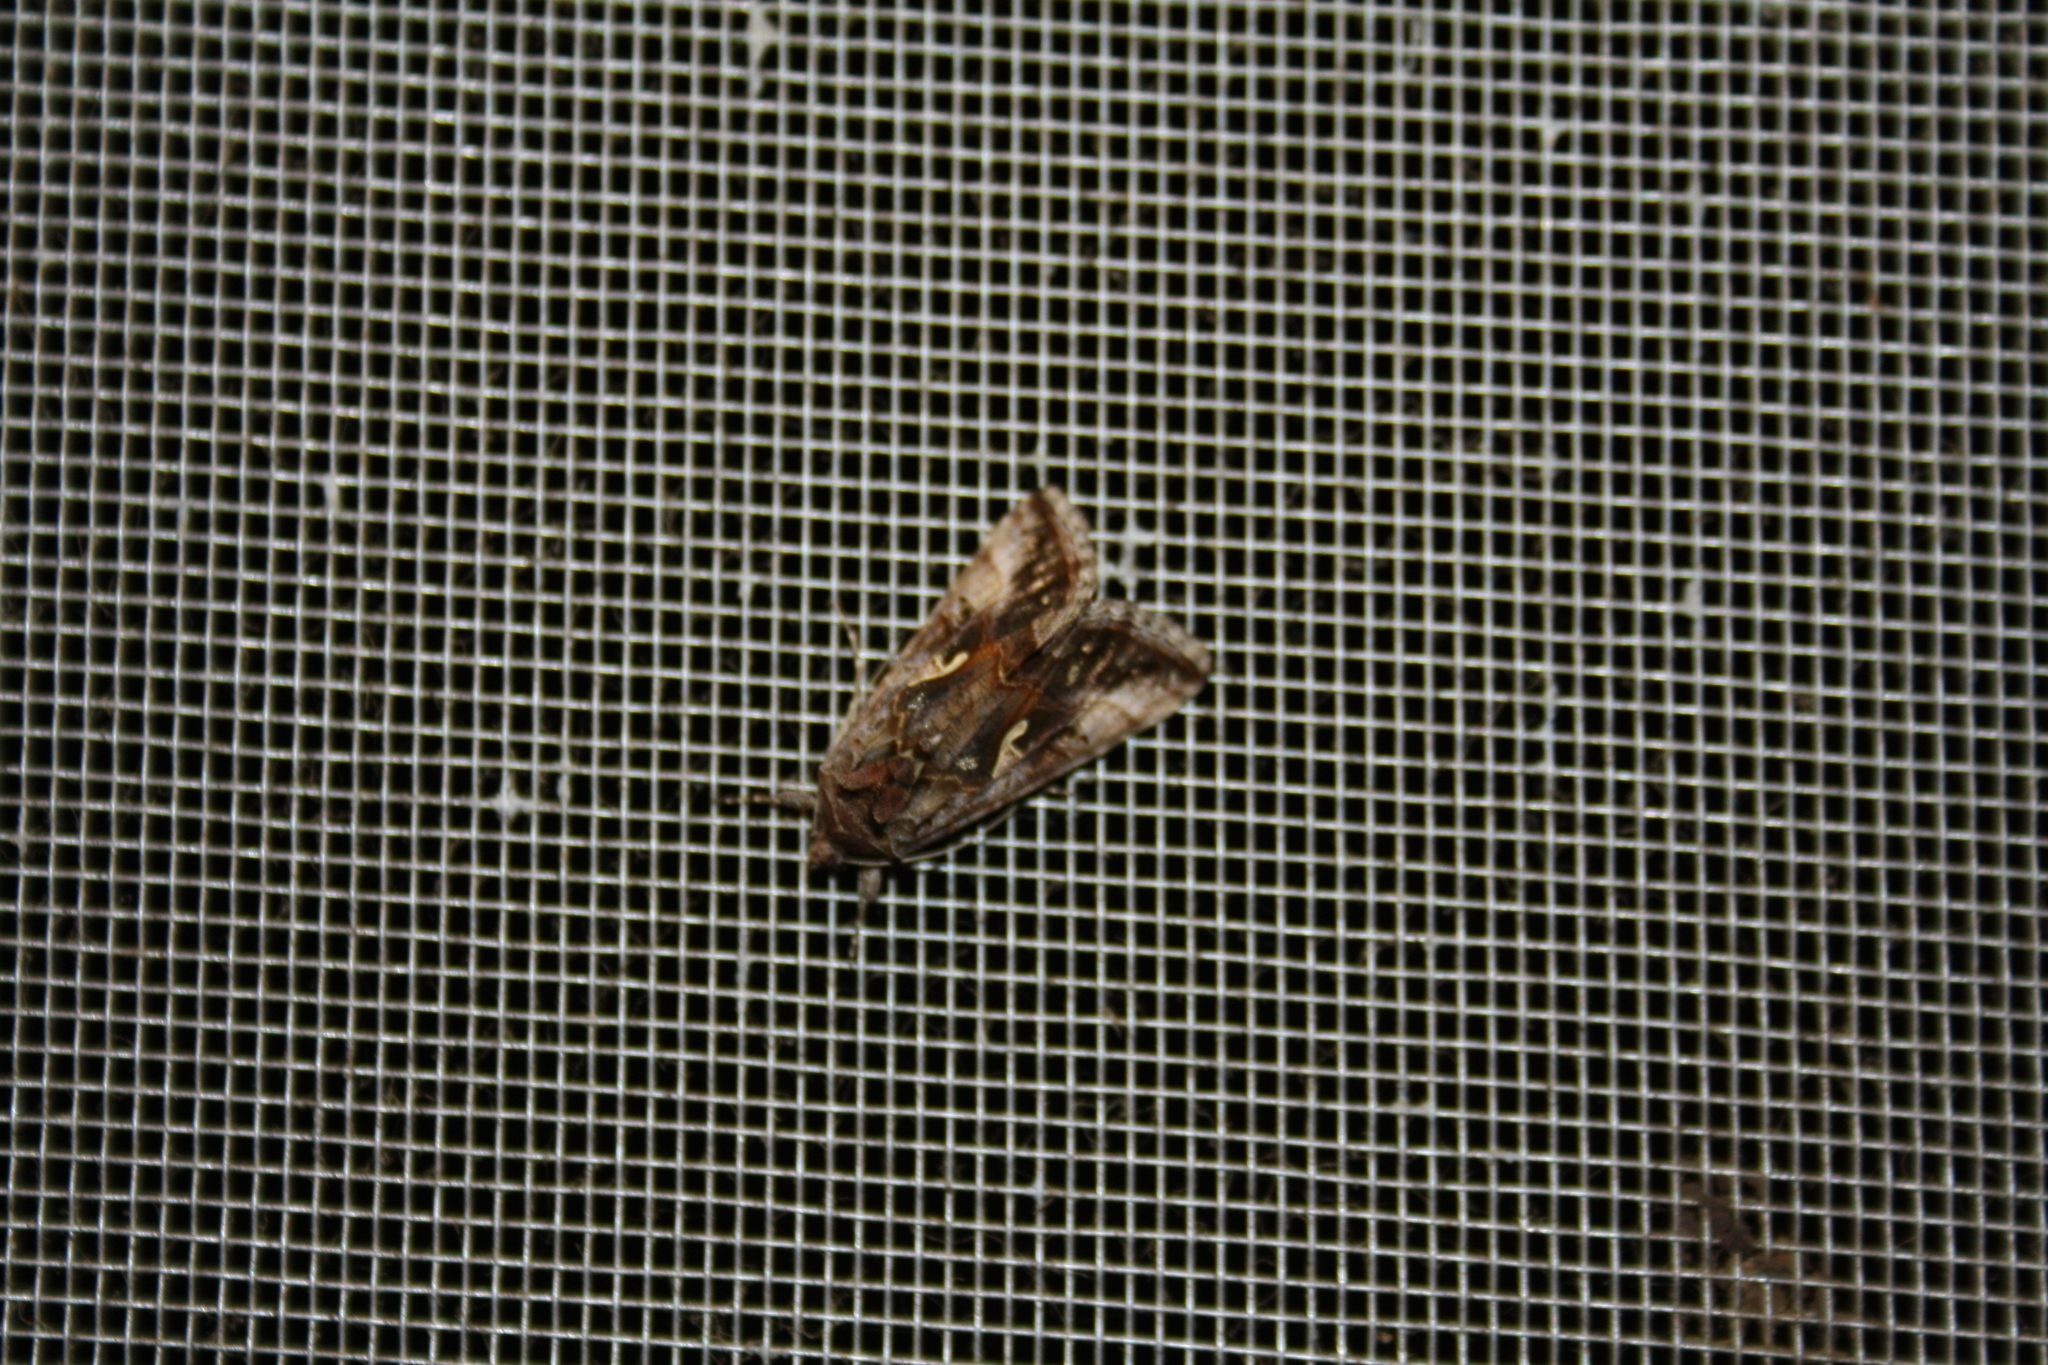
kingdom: Animalia
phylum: Arthropoda
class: Insecta
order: Lepidoptera
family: Noctuidae
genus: Autographa
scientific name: Autographa gamma
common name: Silver y
